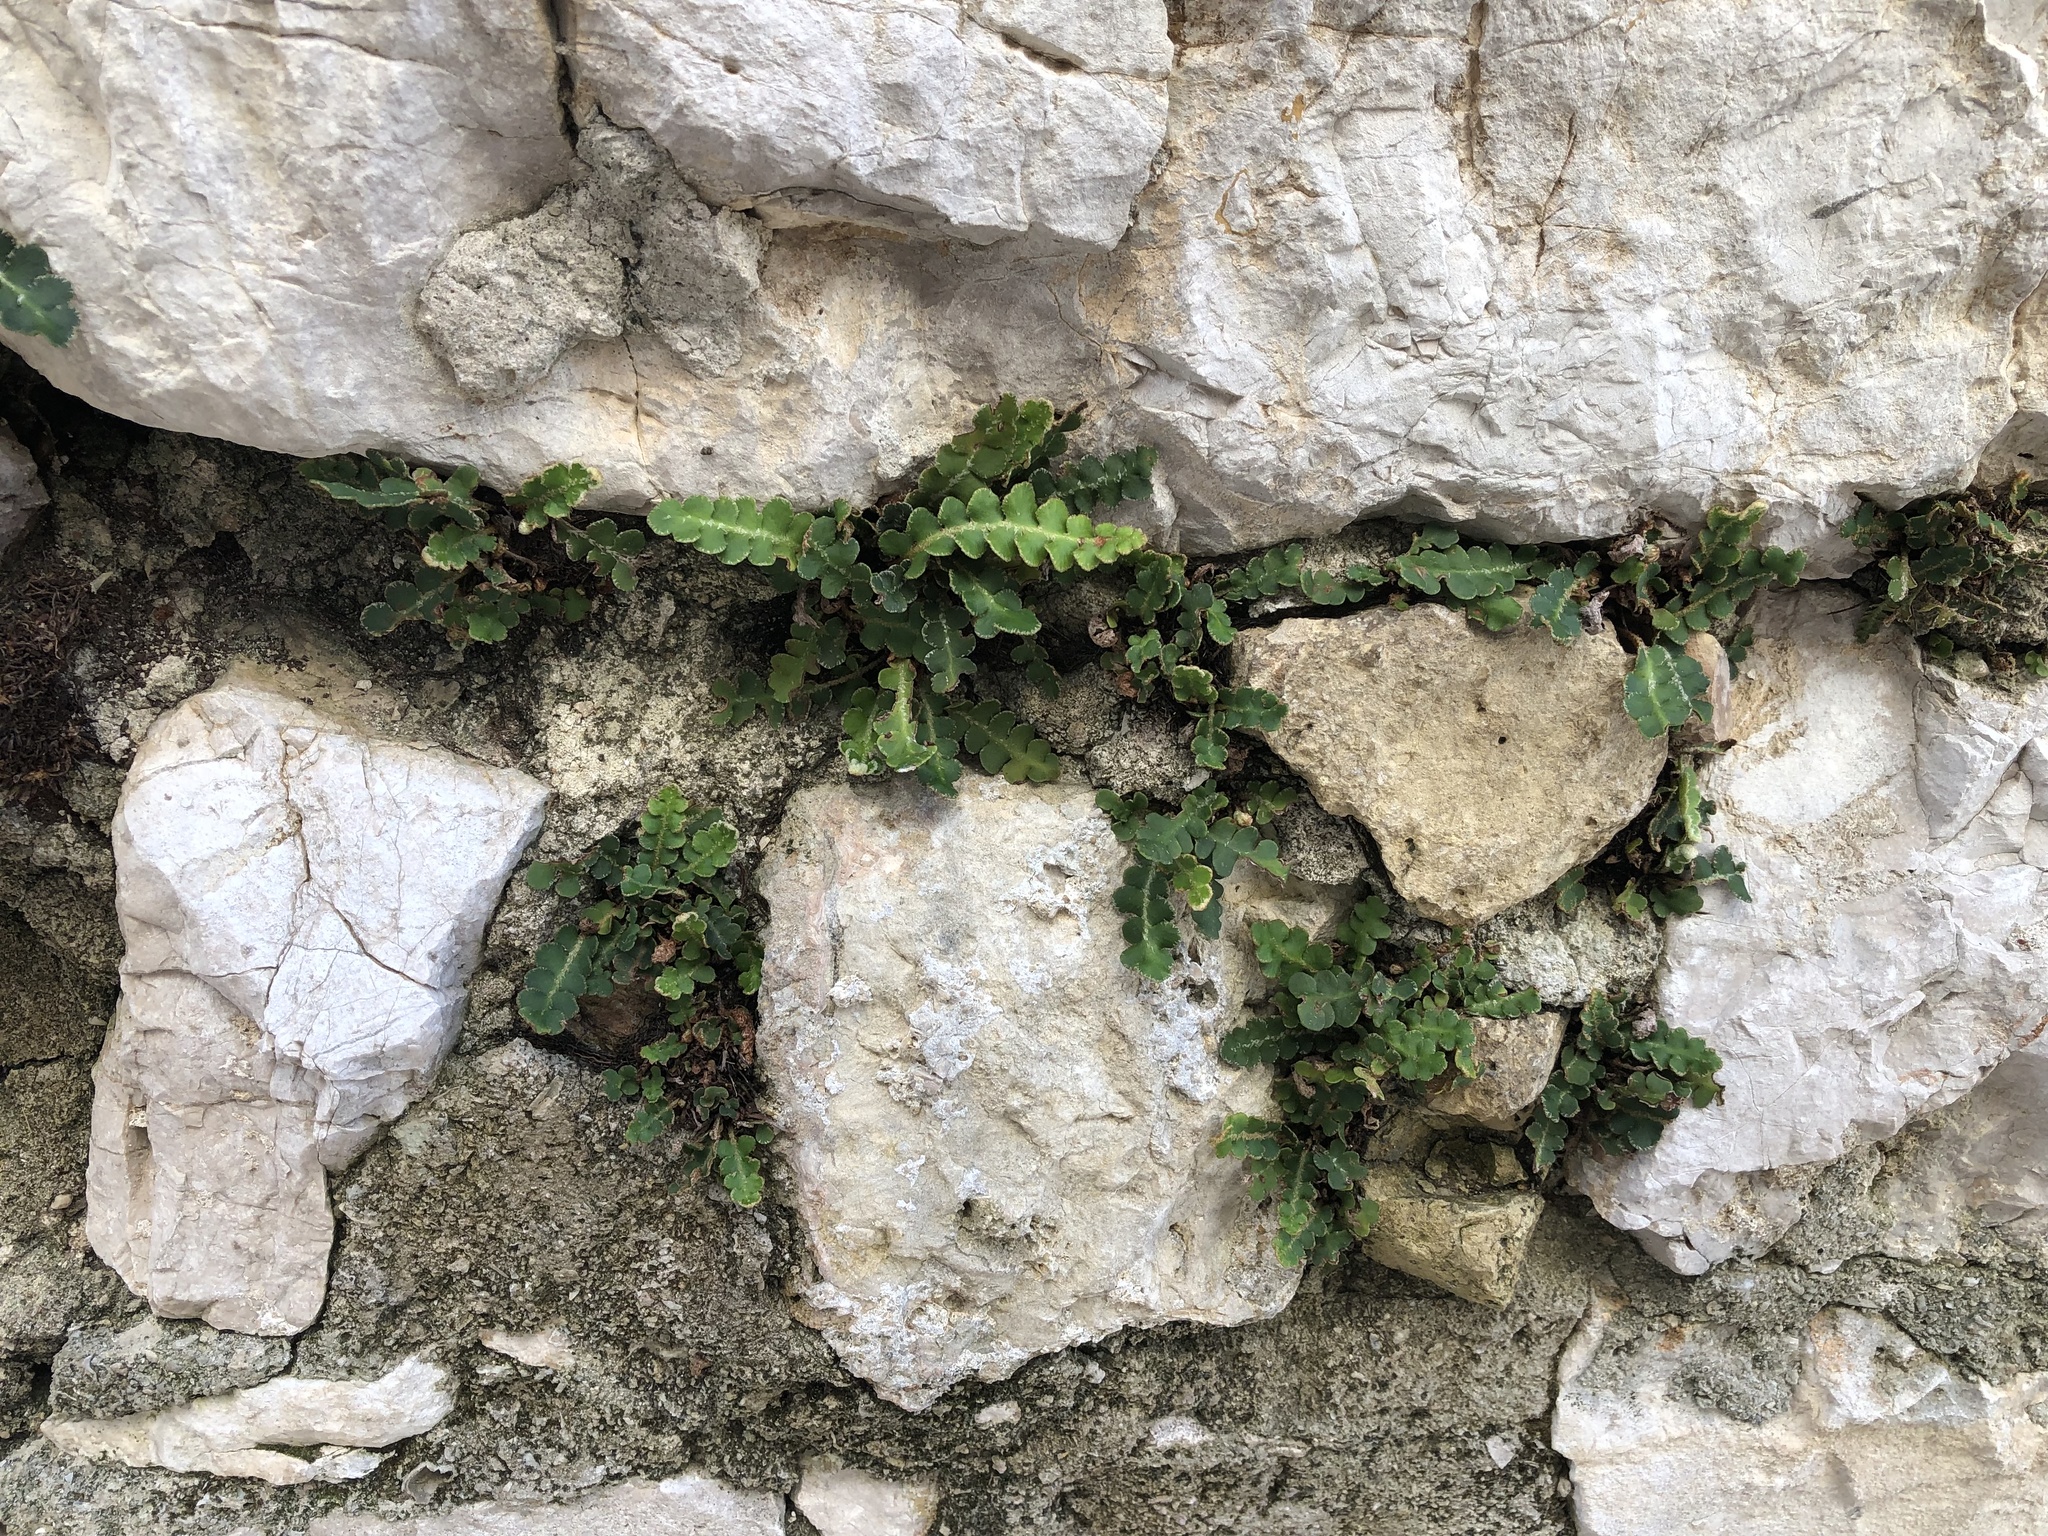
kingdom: Plantae
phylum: Tracheophyta
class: Polypodiopsida
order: Polypodiales
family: Aspleniaceae
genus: Asplenium
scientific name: Asplenium ceterach
